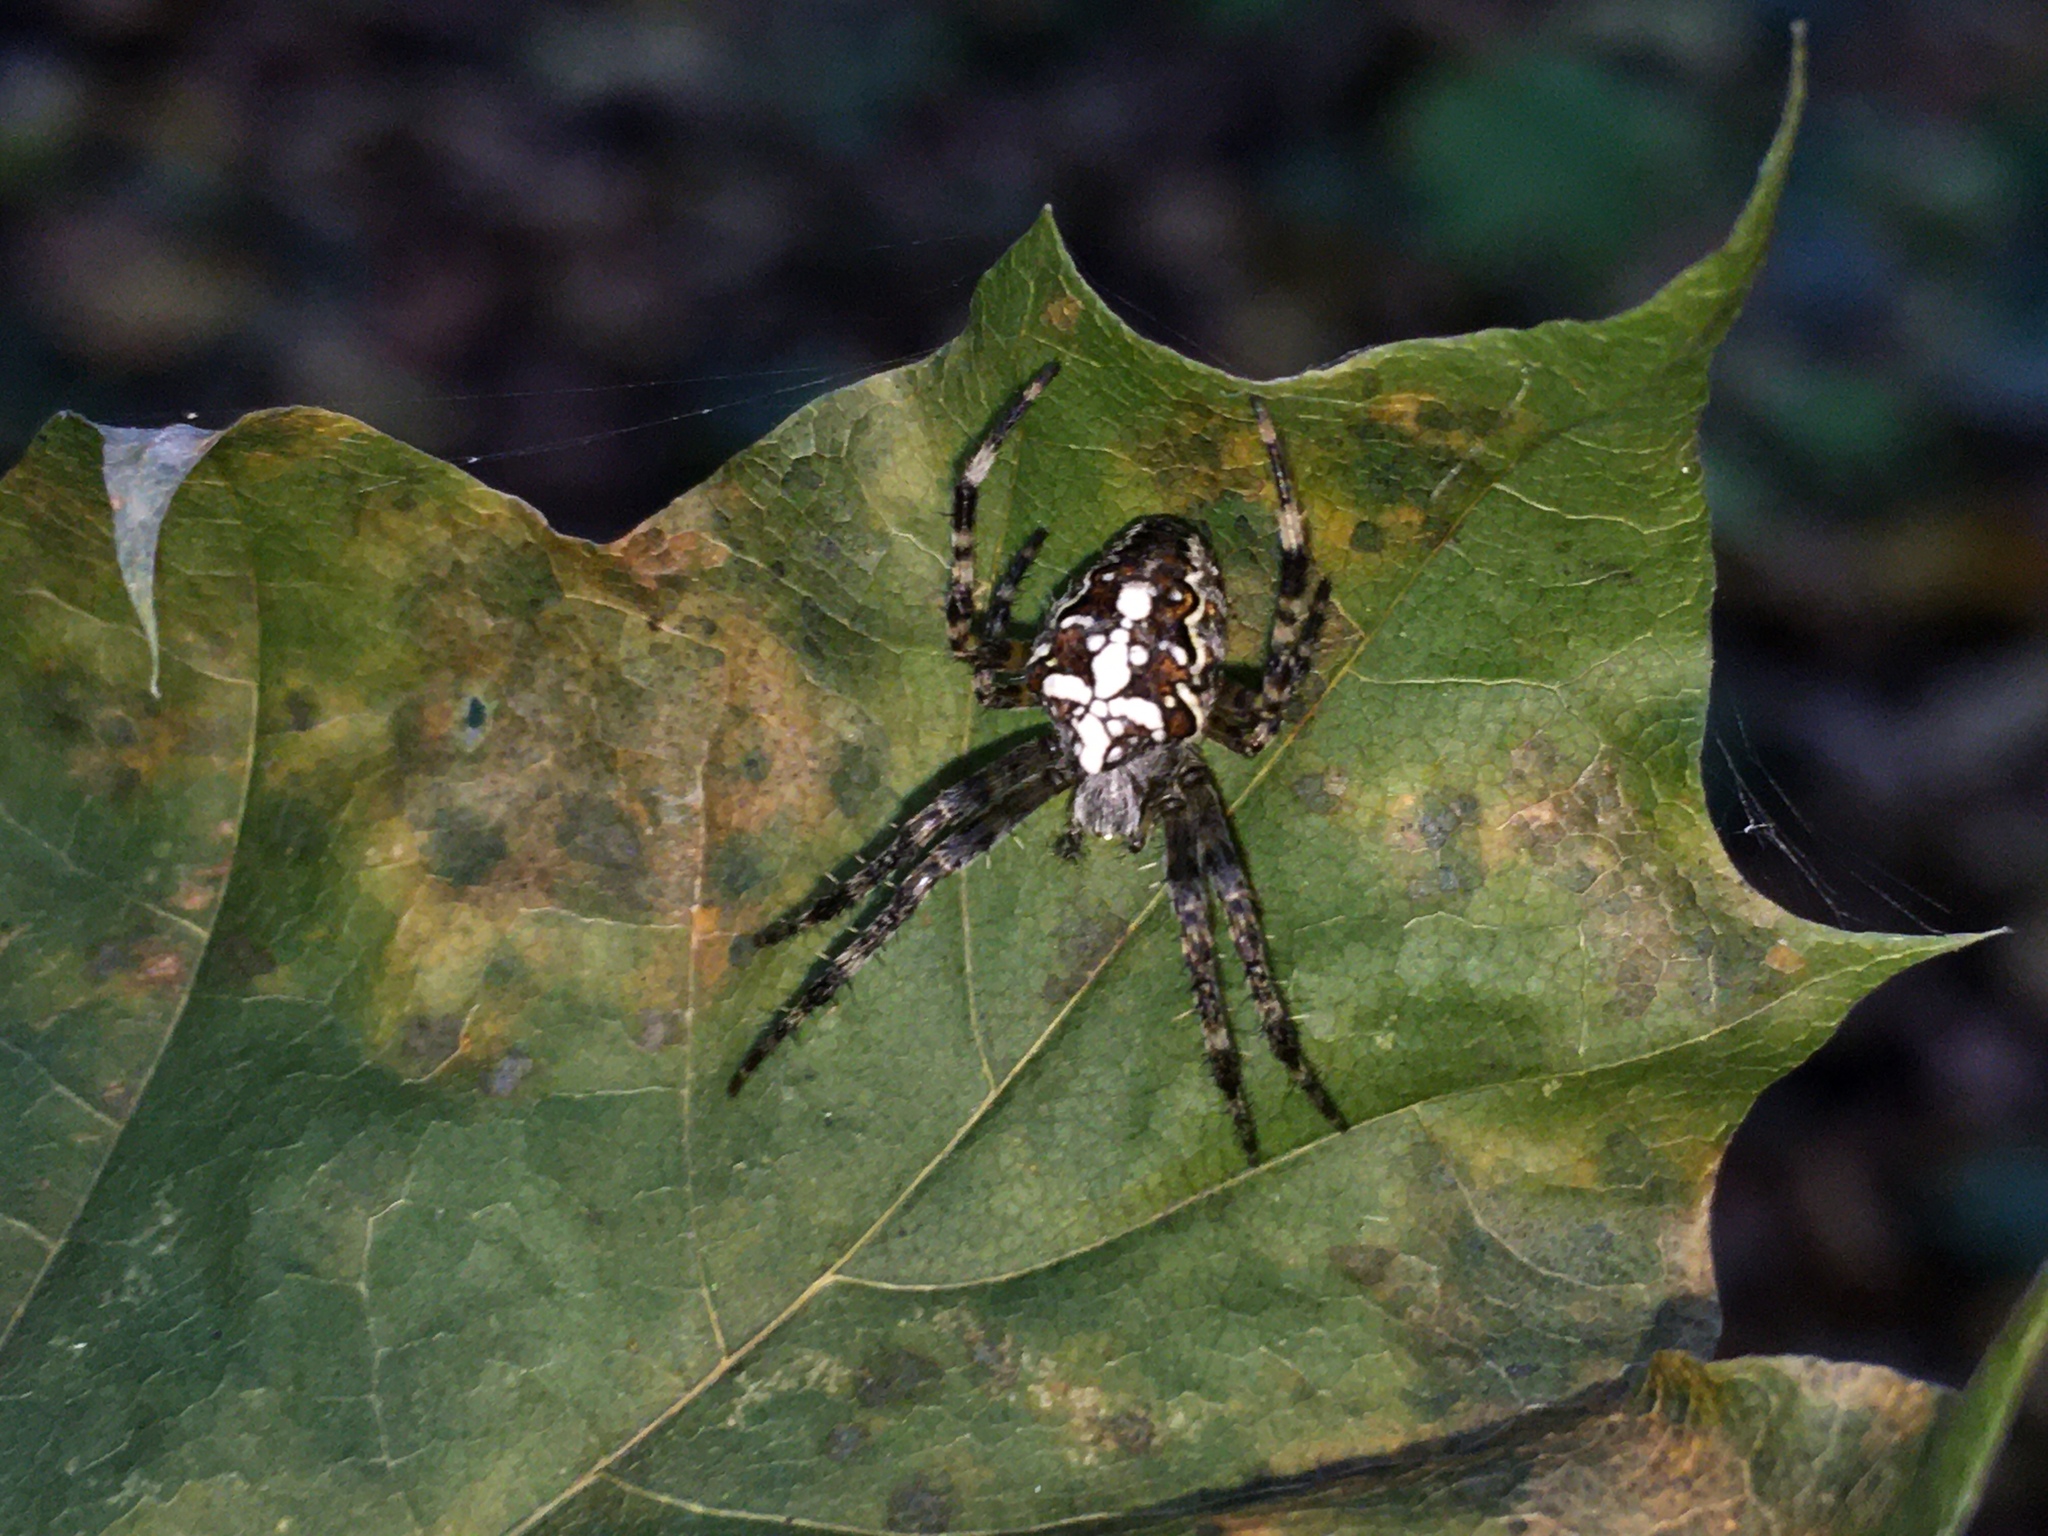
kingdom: Animalia
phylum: Arthropoda
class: Arachnida
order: Araneae
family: Araneidae
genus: Araneus
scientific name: Araneus diadematus
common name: Cross orbweaver
